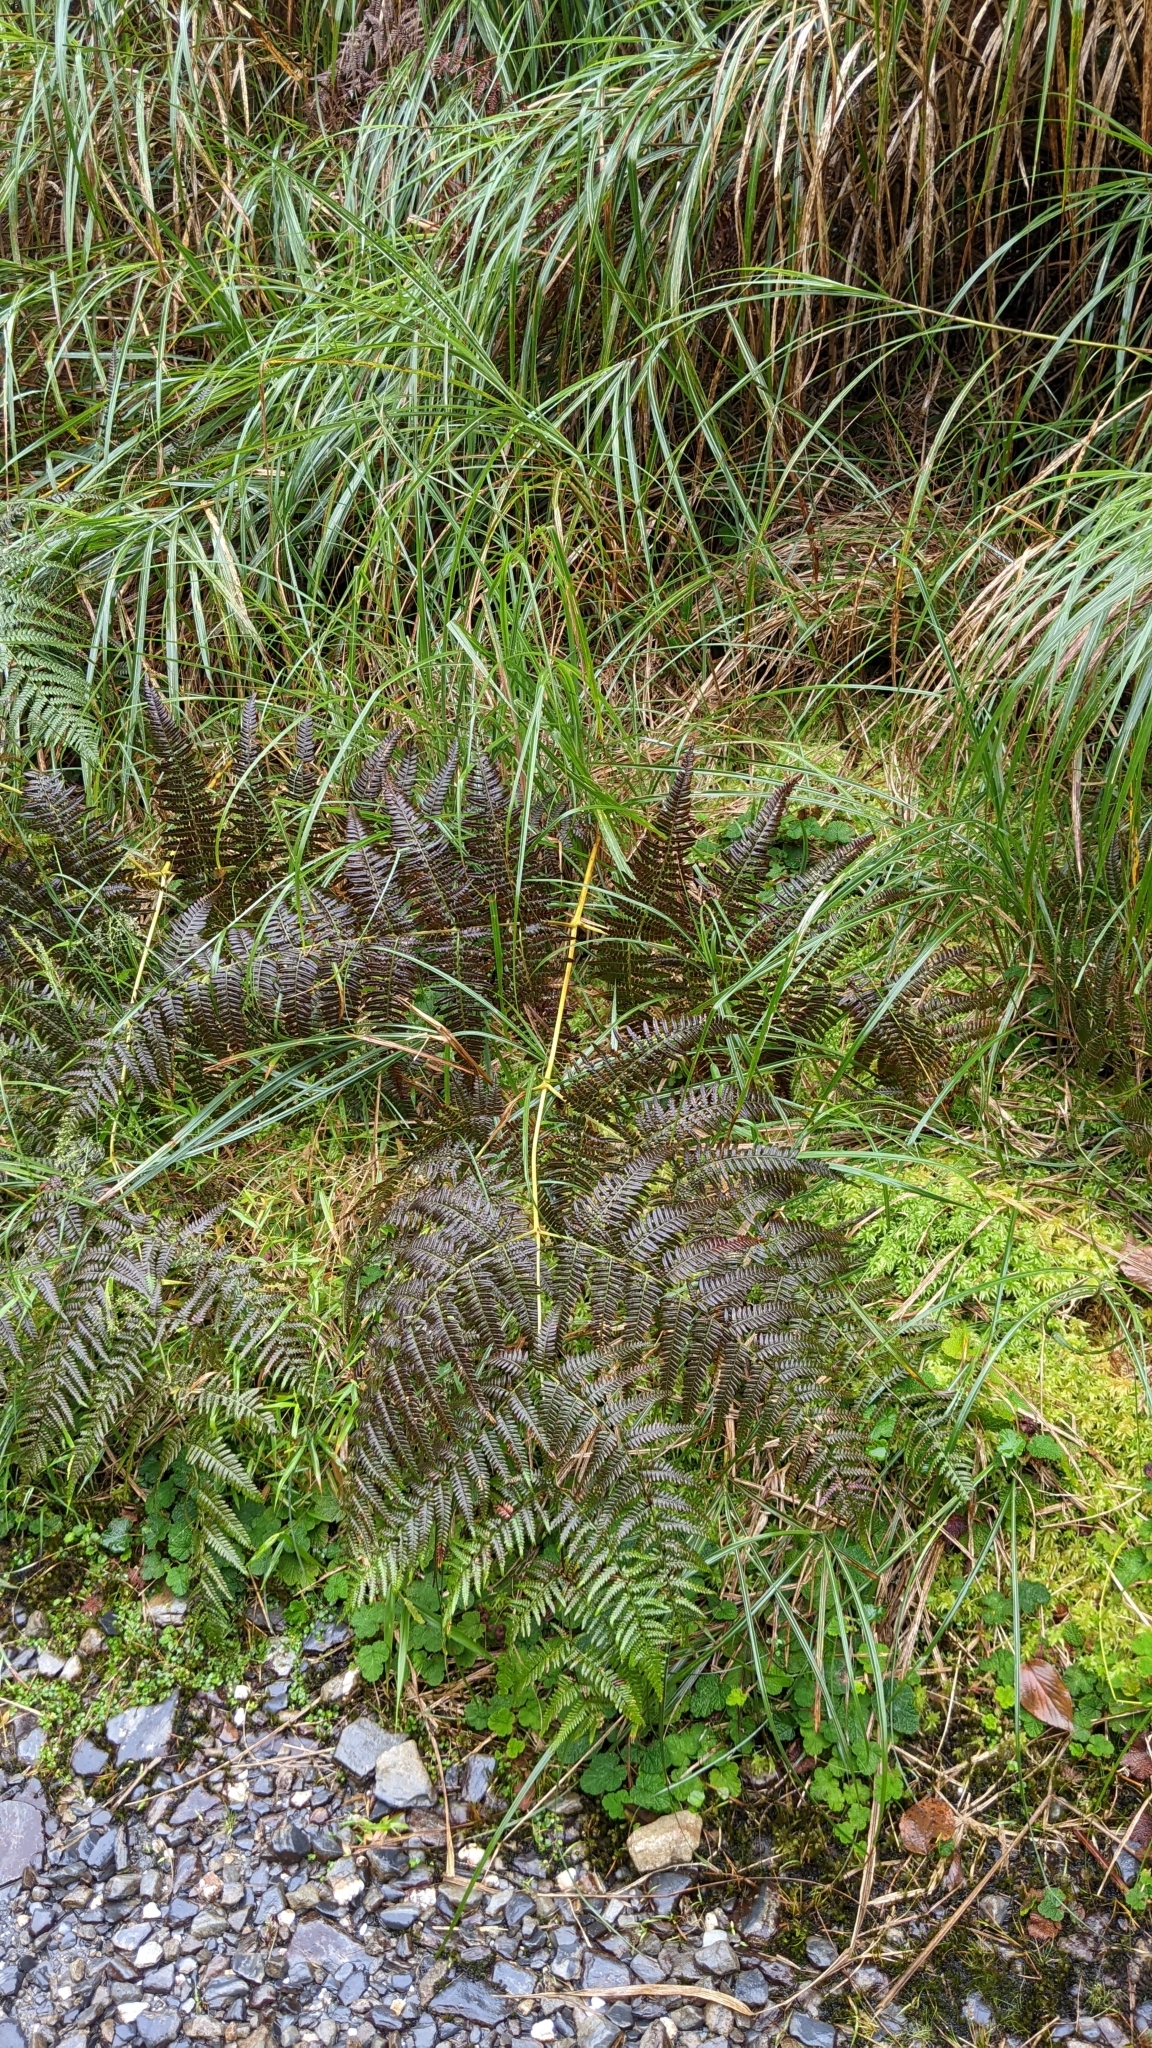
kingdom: Plantae
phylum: Tracheophyta
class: Polypodiopsida
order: Polypodiales
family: Dennstaedtiaceae
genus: Pteridium
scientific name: Pteridium aquilinum
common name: Bracken
